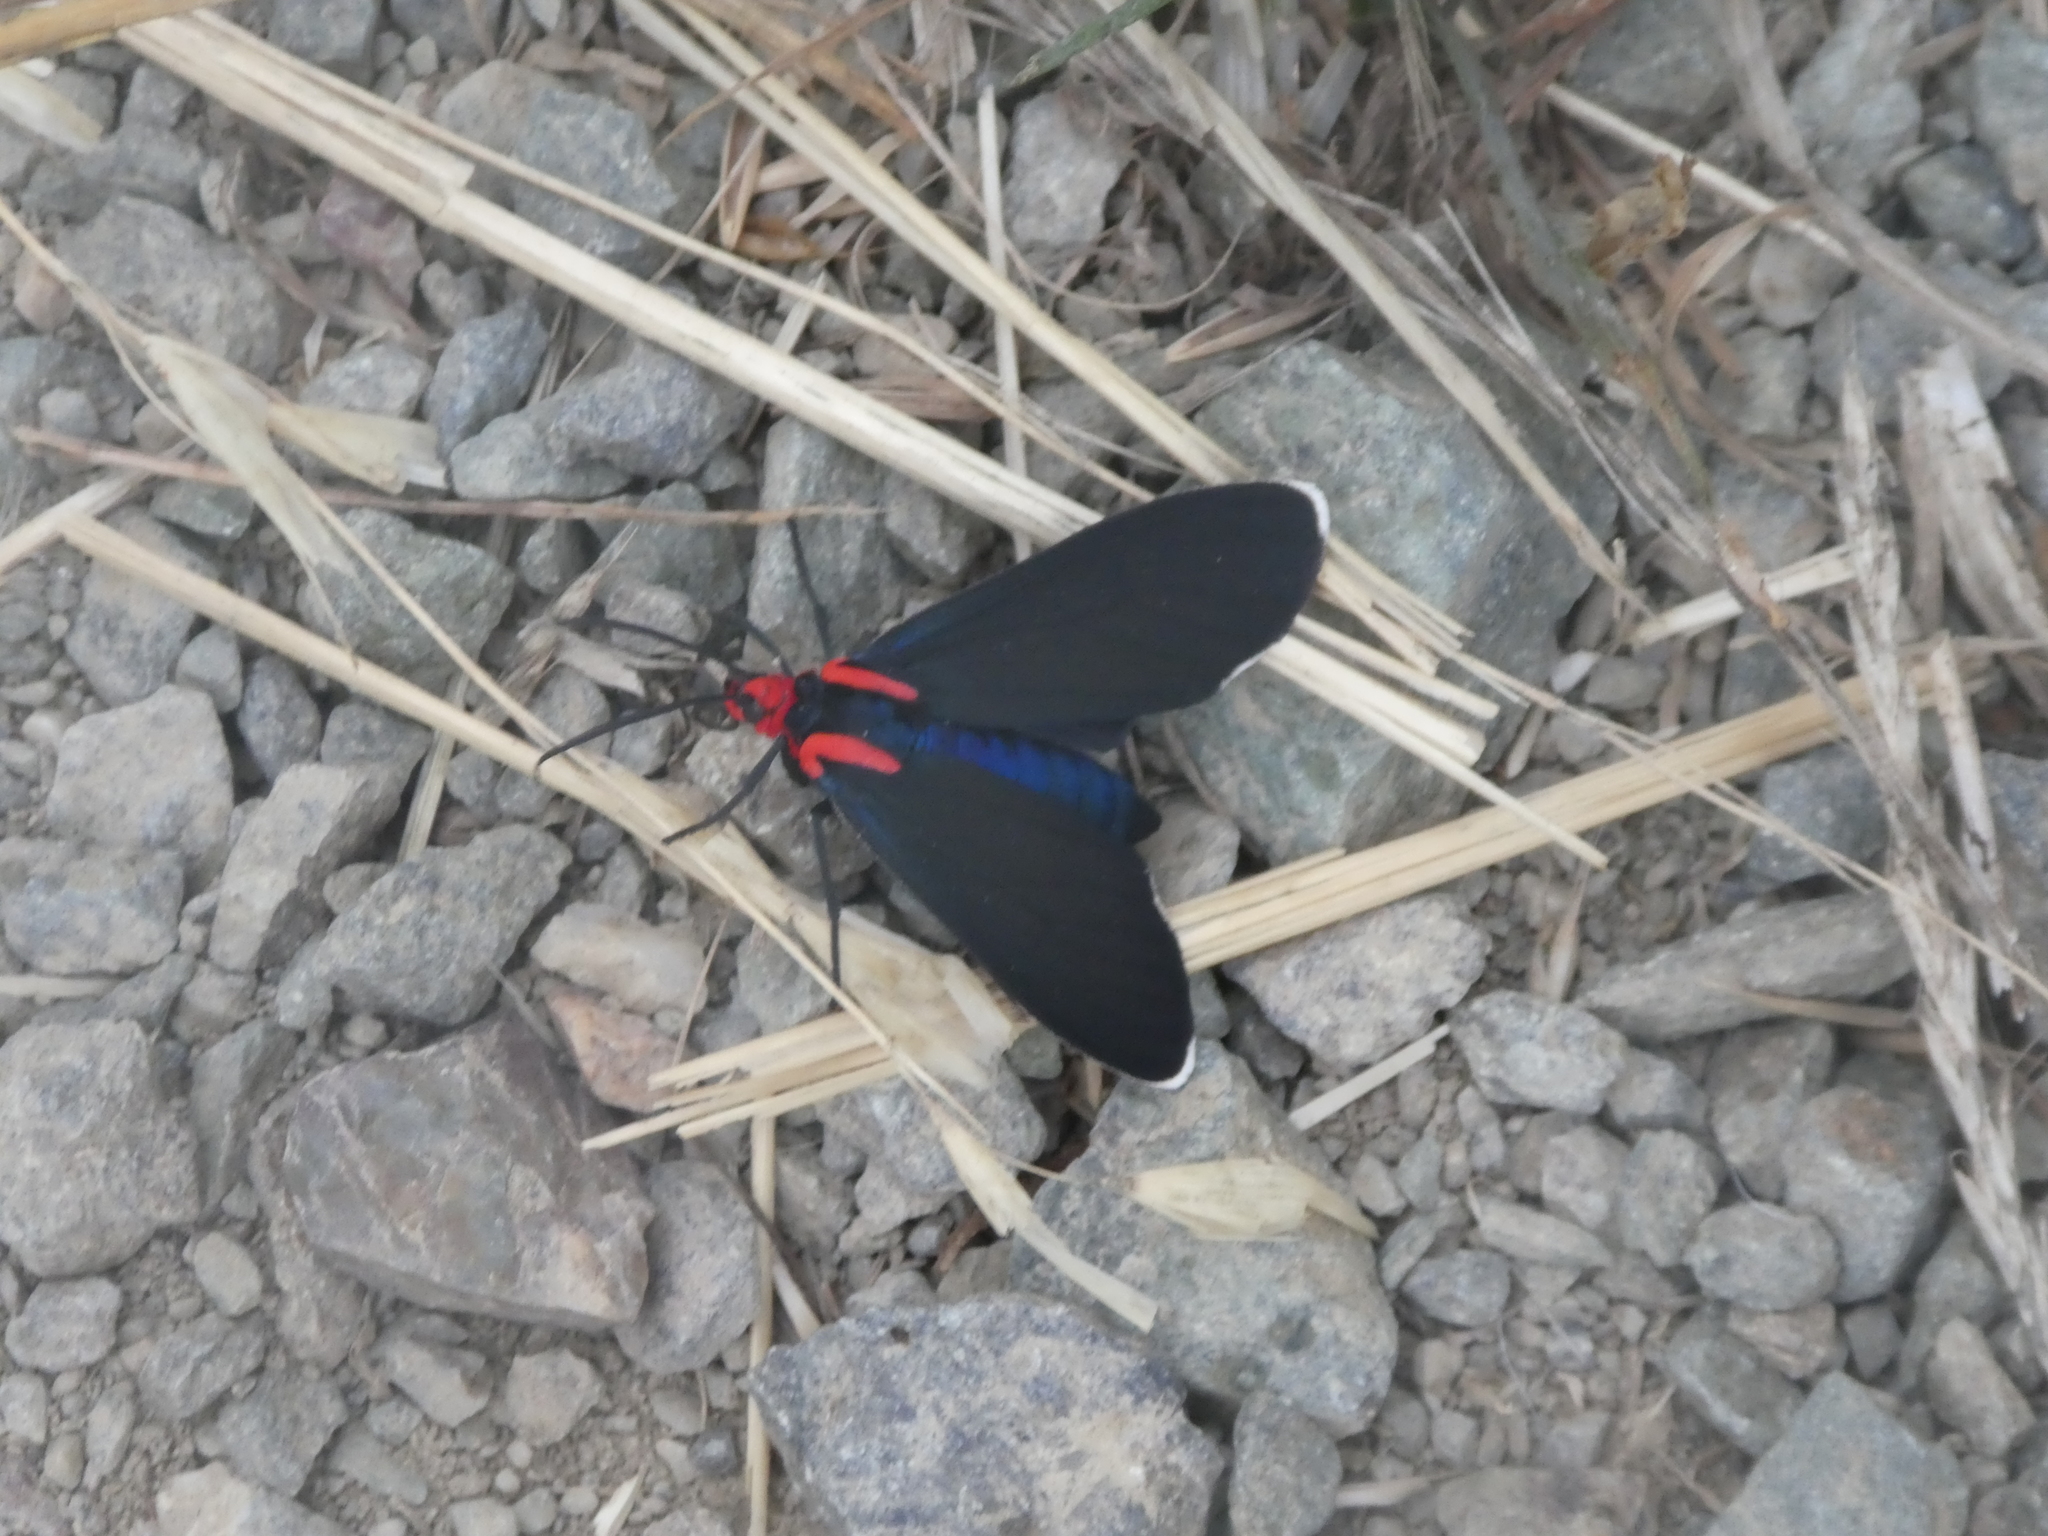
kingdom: Animalia
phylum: Arthropoda
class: Insecta
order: Lepidoptera
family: Erebidae
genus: Ctenucha
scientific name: Ctenucha rubroscapus
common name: Red-shouldered ctenucha
